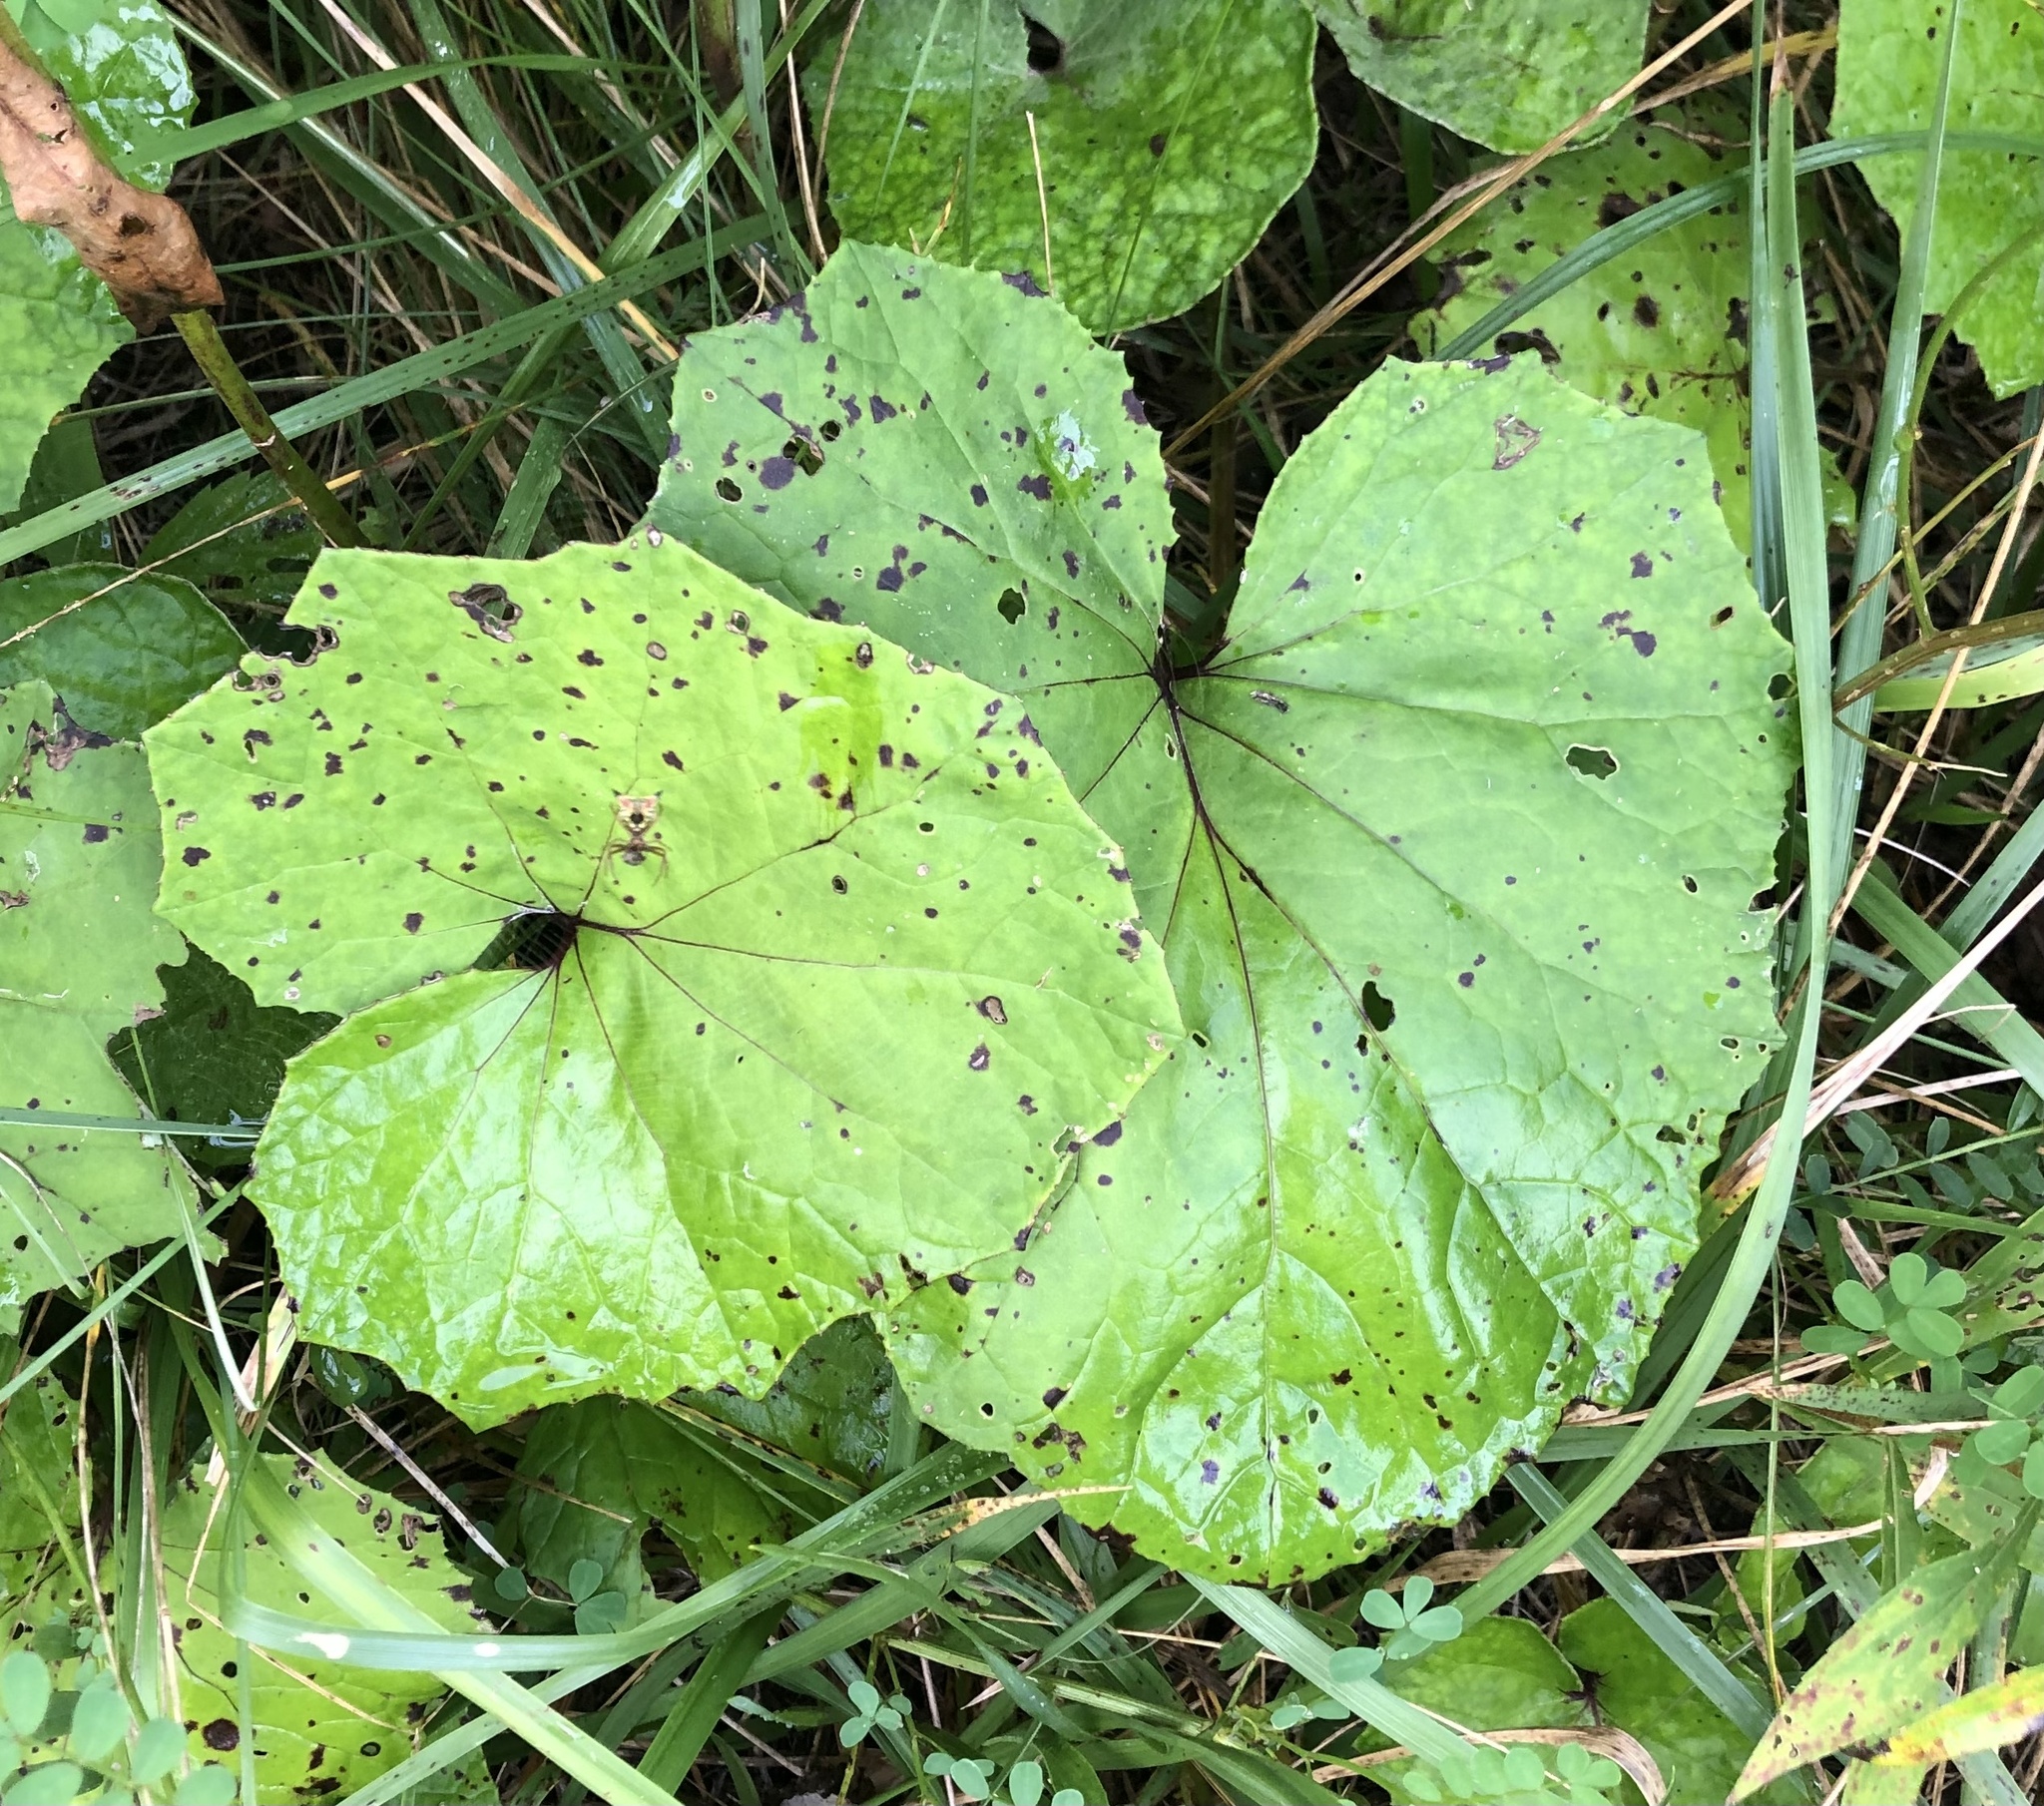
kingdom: Plantae
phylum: Tracheophyta
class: Magnoliopsida
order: Asterales
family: Asteraceae
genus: Tussilago
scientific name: Tussilago farfara
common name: Coltsfoot
